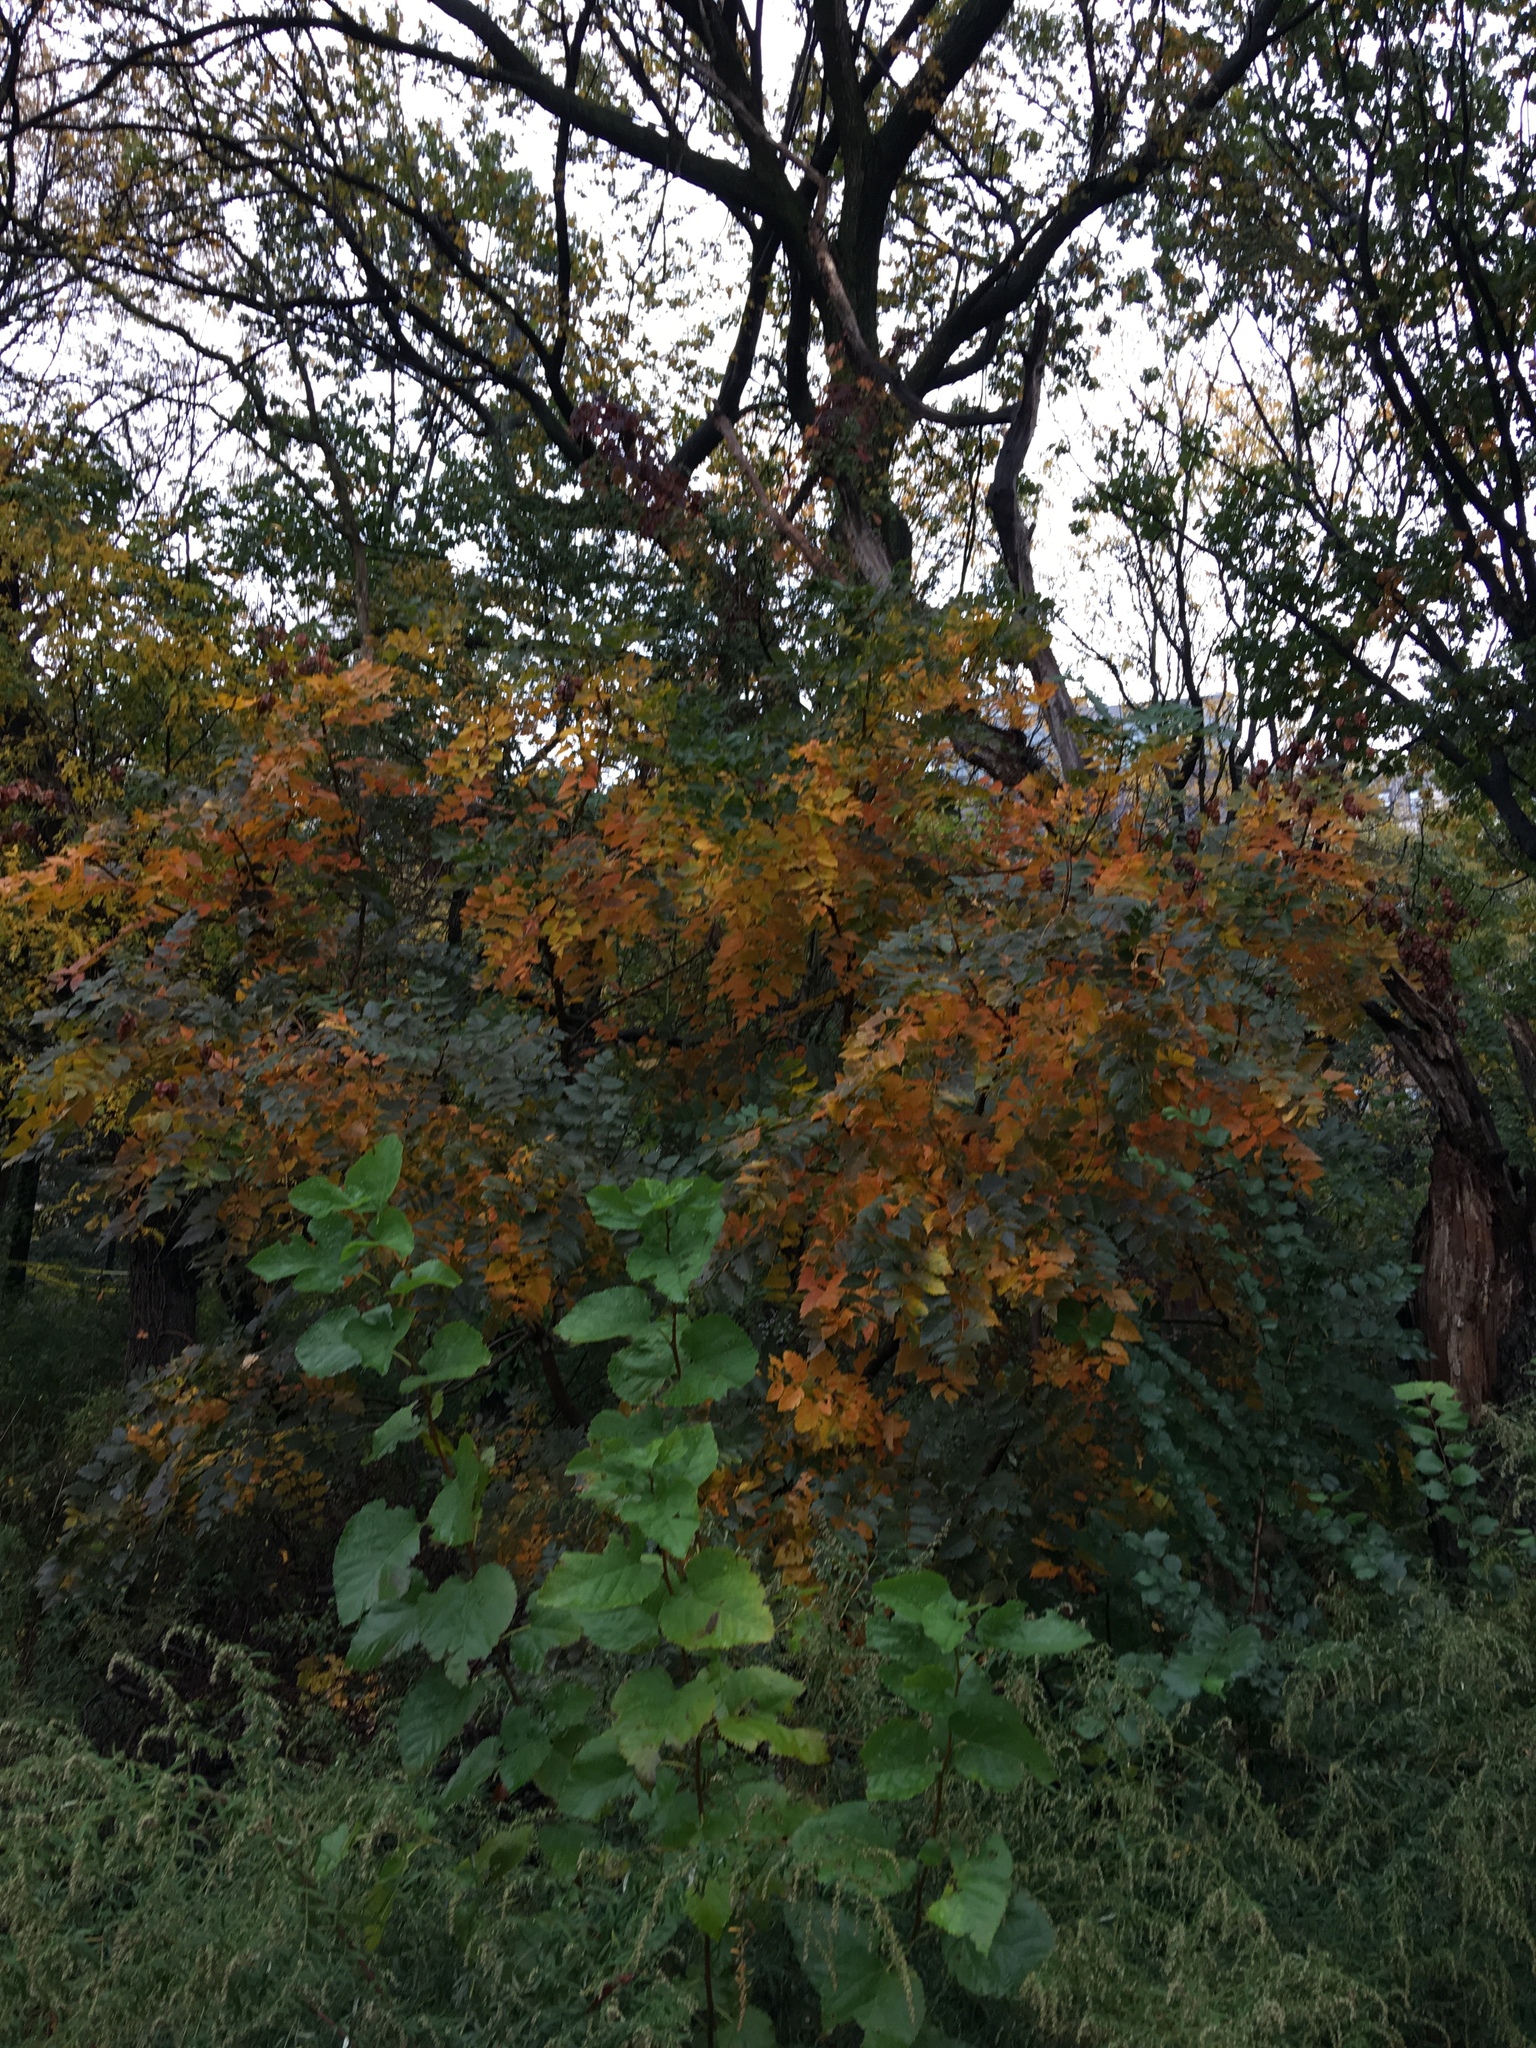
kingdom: Plantae
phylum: Tracheophyta
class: Magnoliopsida
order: Sapindales
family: Sapindaceae
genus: Koelreuteria
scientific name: Koelreuteria paniculata
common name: Pride-of-india
